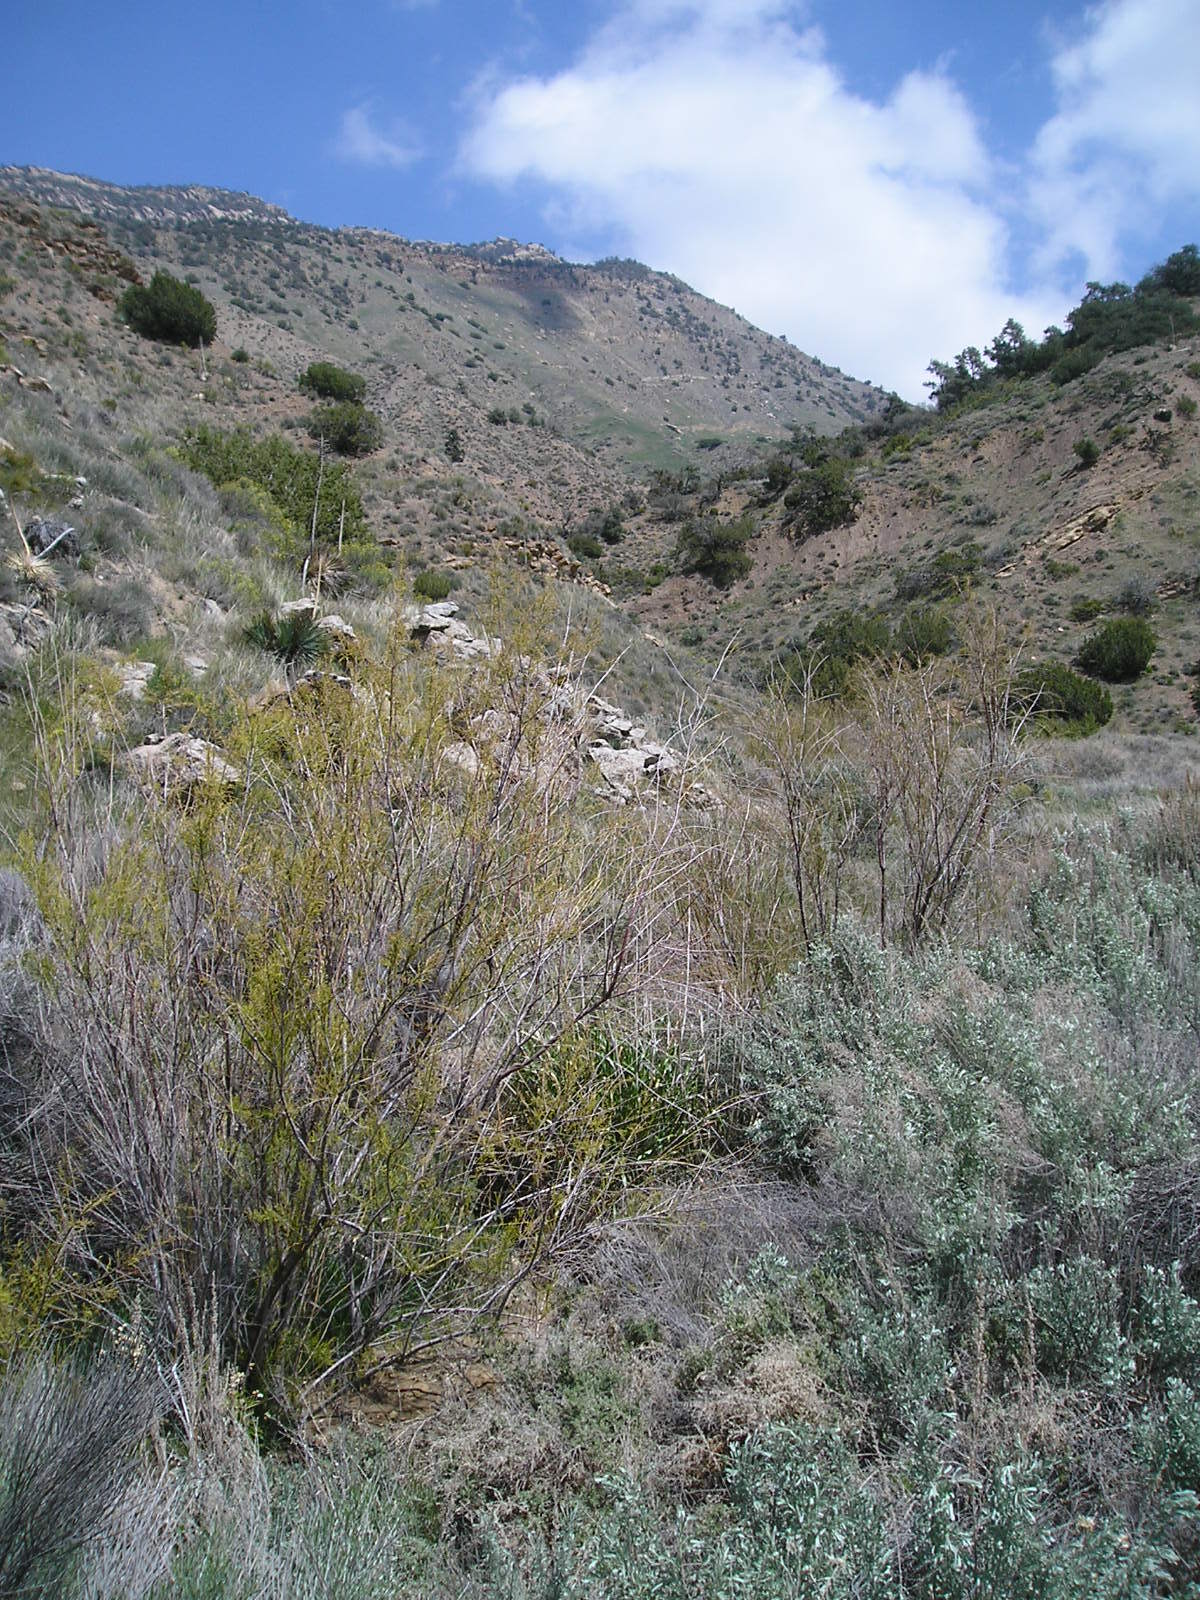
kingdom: Plantae
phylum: Tracheophyta
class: Liliopsida
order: Asparagales
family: Asparagaceae
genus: Hesperoyucca
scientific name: Hesperoyucca whipplei
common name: Our lord's-candle
